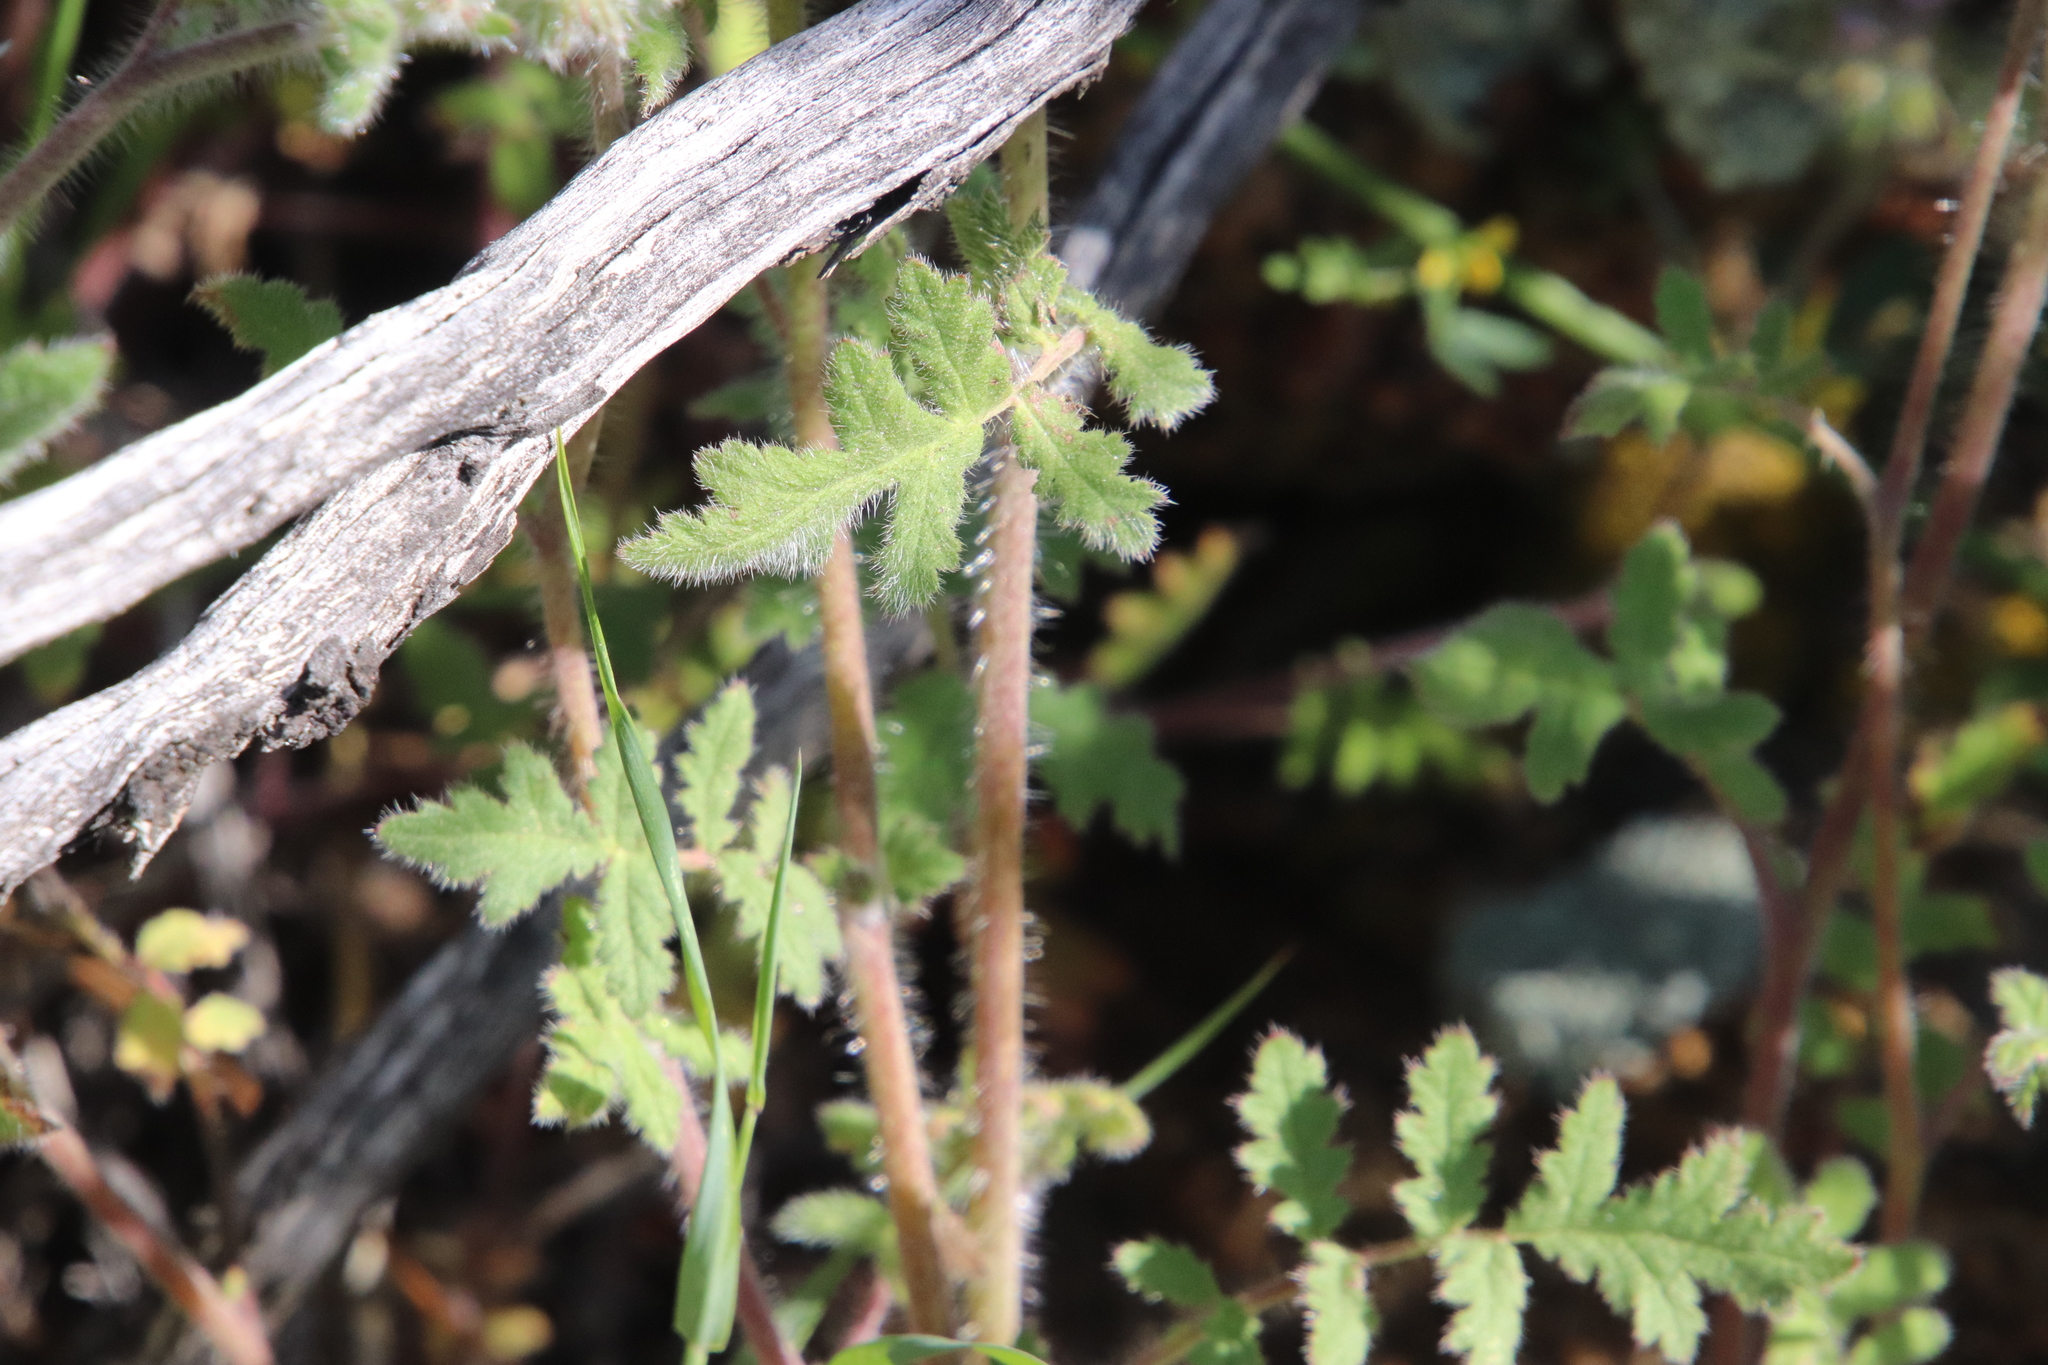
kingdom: Plantae
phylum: Tracheophyta
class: Magnoliopsida
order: Boraginales
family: Hydrophyllaceae
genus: Phacelia
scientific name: Phacelia cicutaria
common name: Caterpillar phacelia
